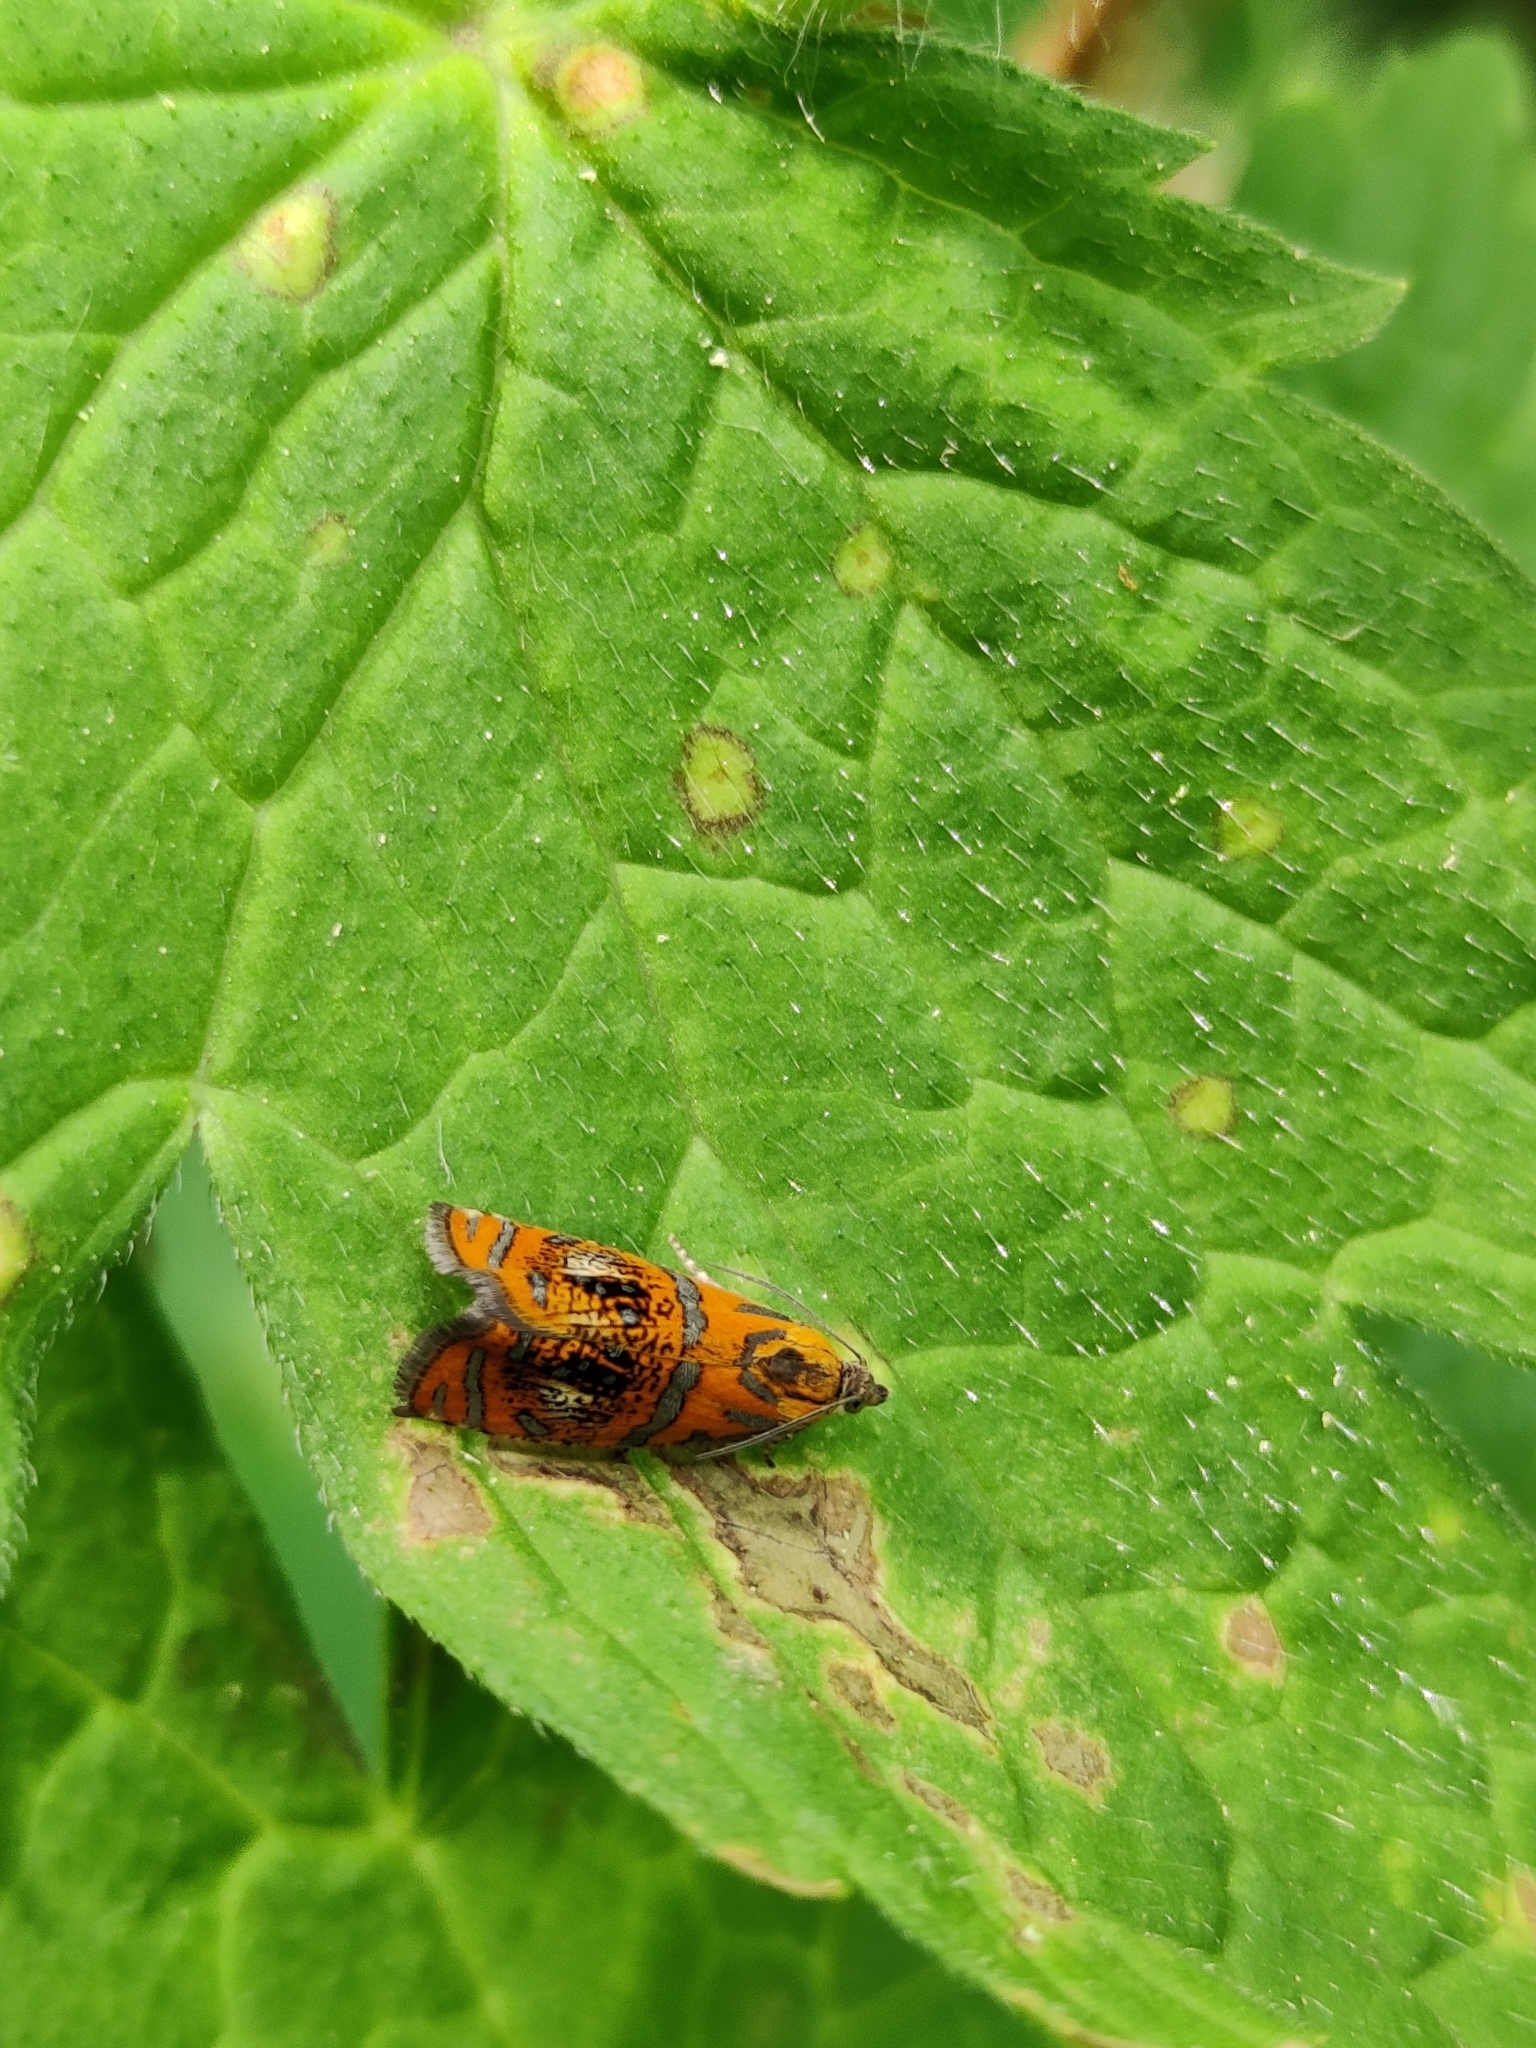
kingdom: Animalia
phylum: Arthropoda
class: Insecta
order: Lepidoptera
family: Tortricidae
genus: Olethreutes
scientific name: Olethreutes arcuella
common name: Arched marble
